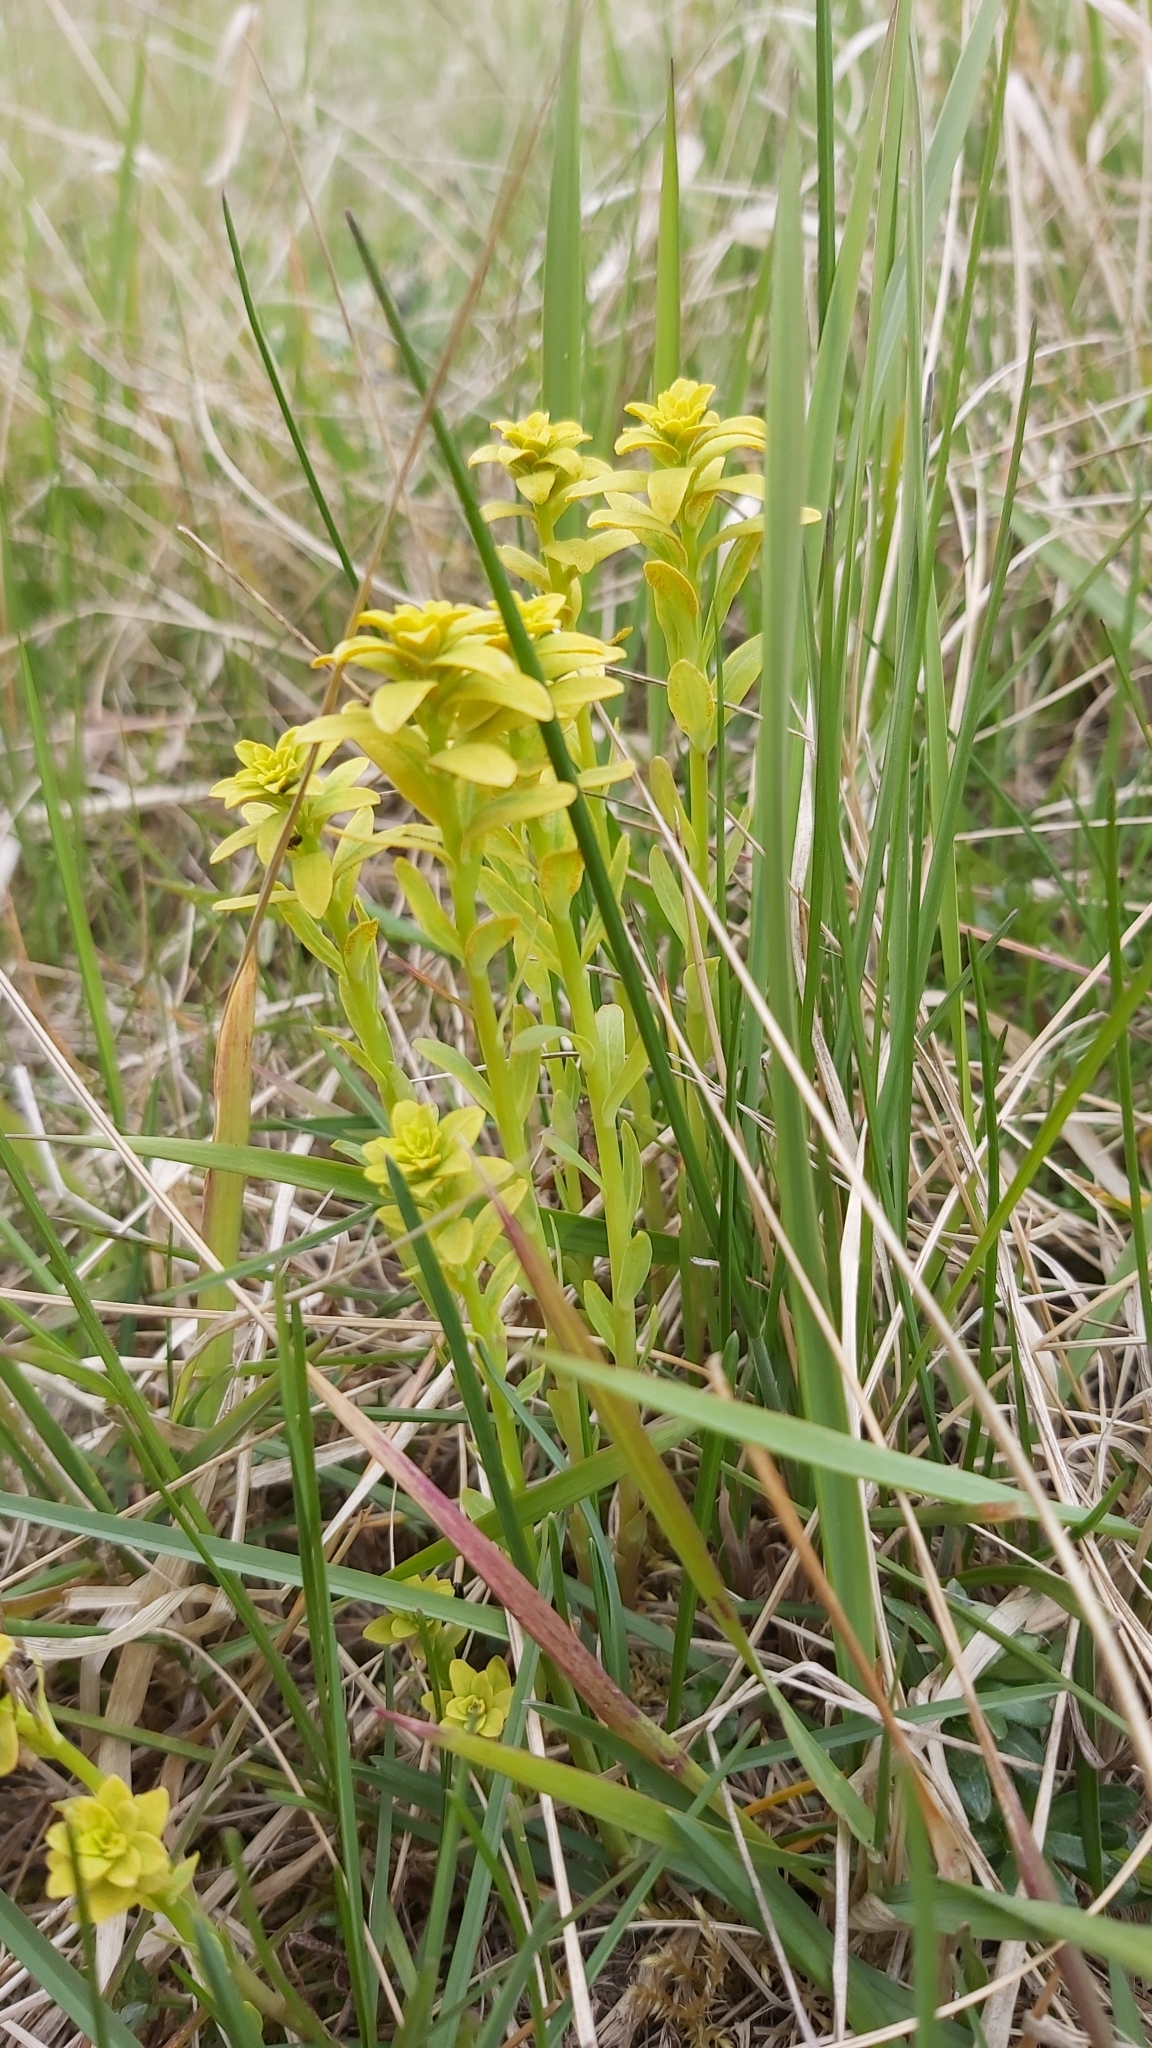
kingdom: Fungi
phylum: Basidiomycota
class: Pucciniomycetes
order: Pucciniales
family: Pucciniaceae
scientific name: Pucciniaceae
